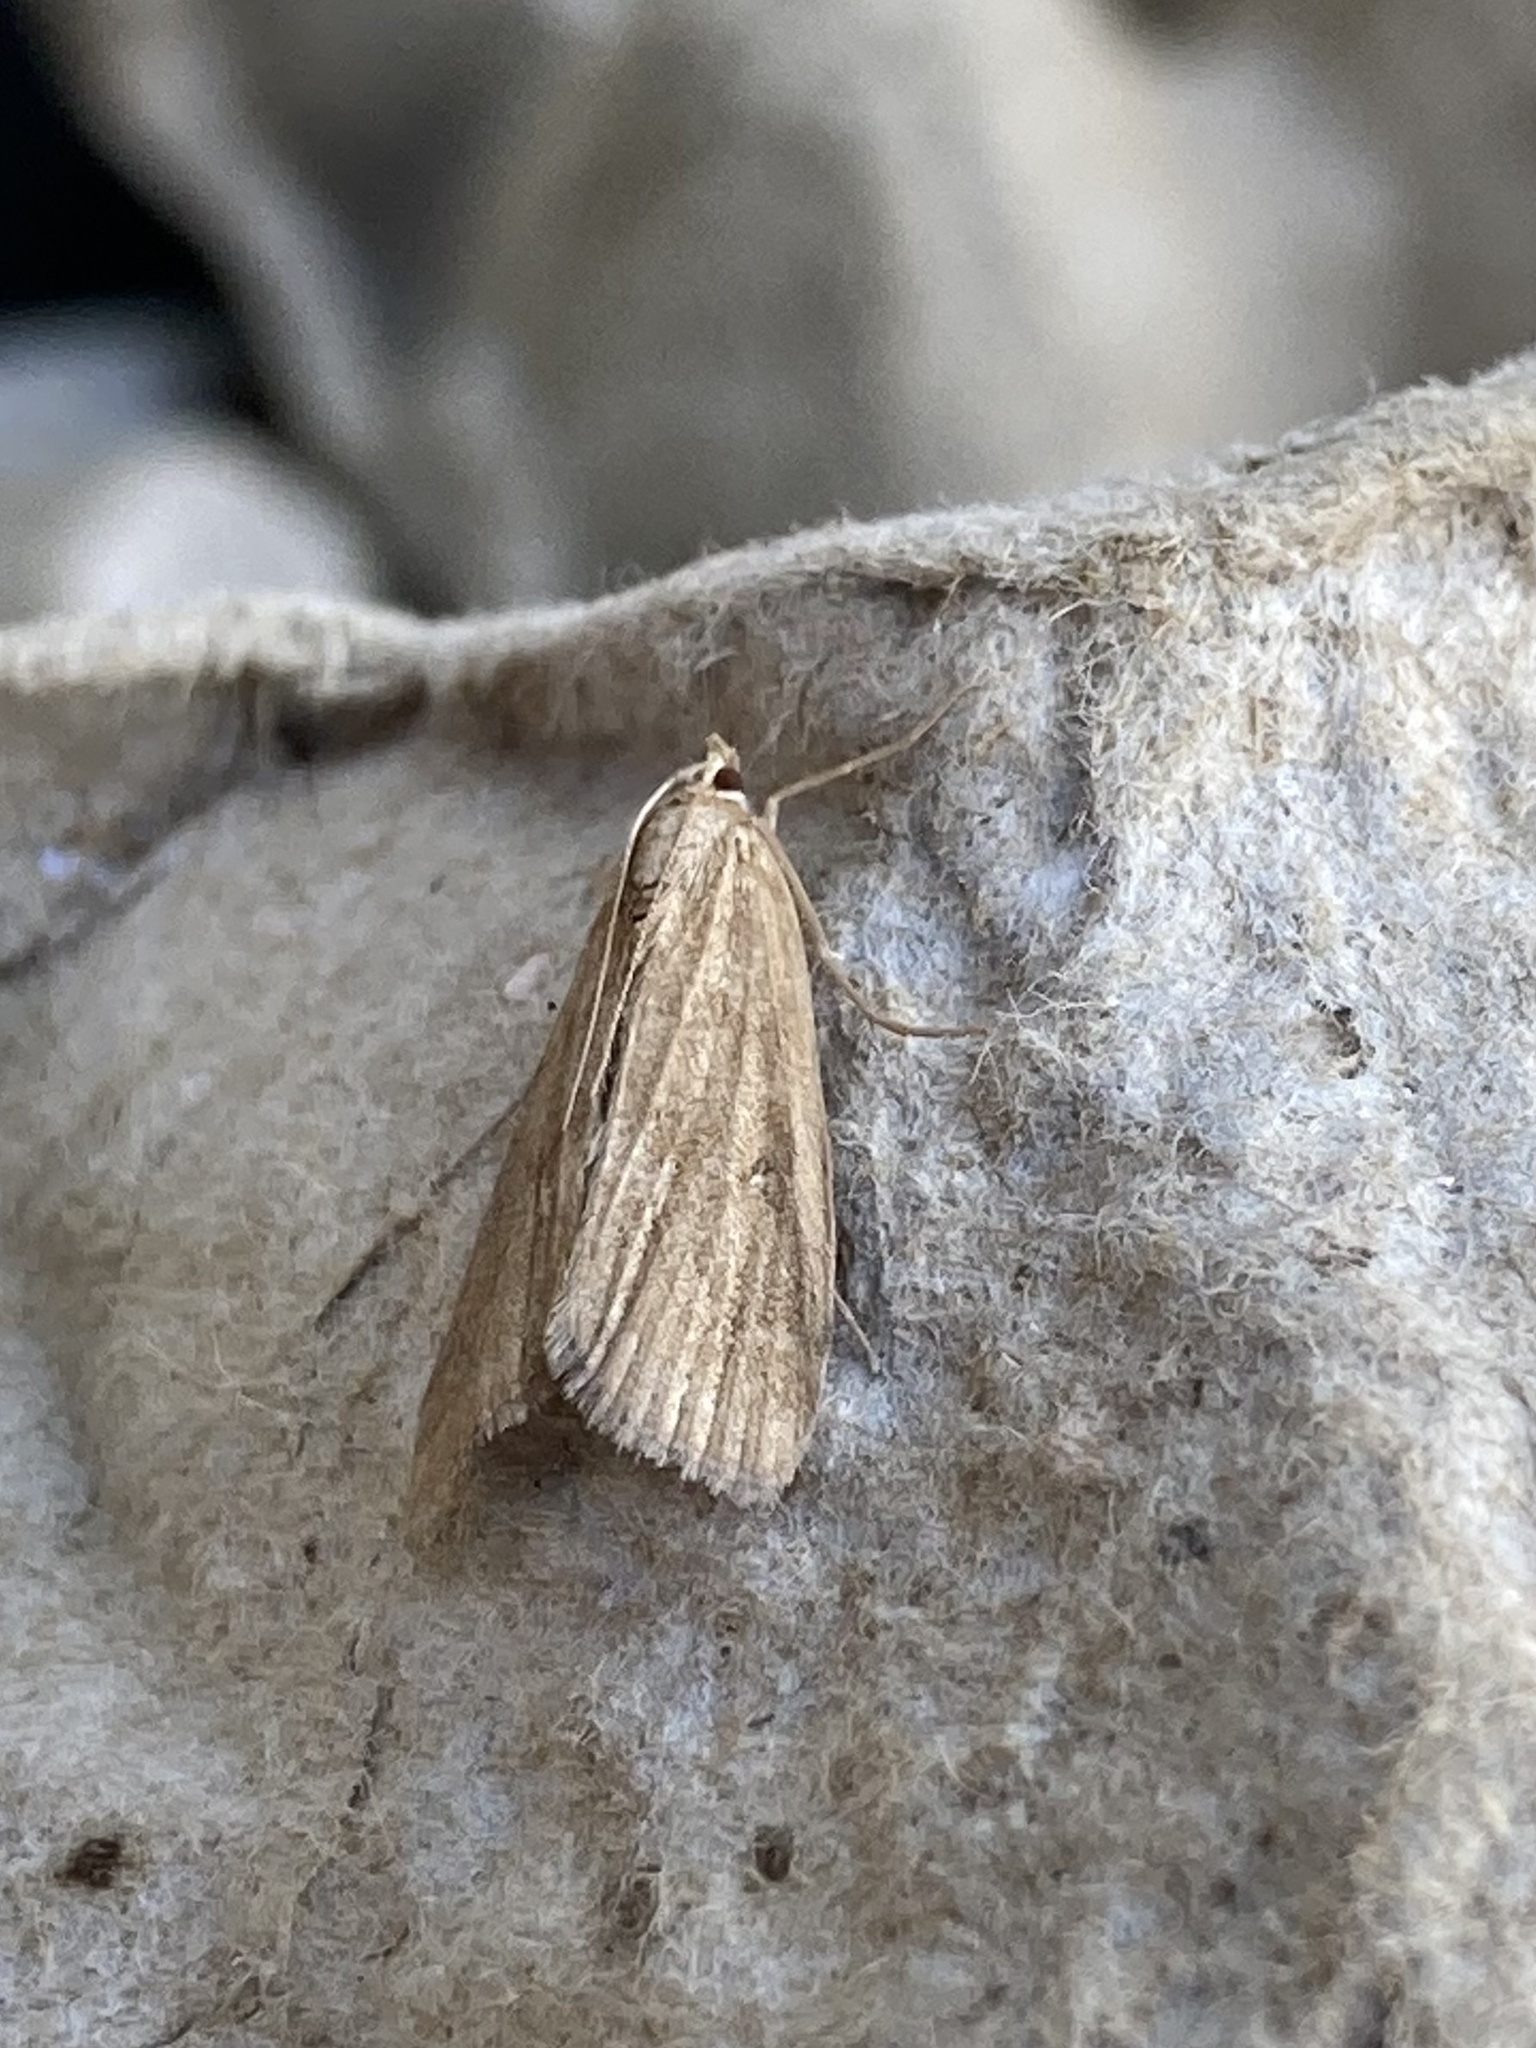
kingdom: Animalia
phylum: Arthropoda
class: Insecta
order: Lepidoptera
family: Crambidae
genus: Parapoynx
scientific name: Parapoynx stratiotata
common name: Ringed china-mark
